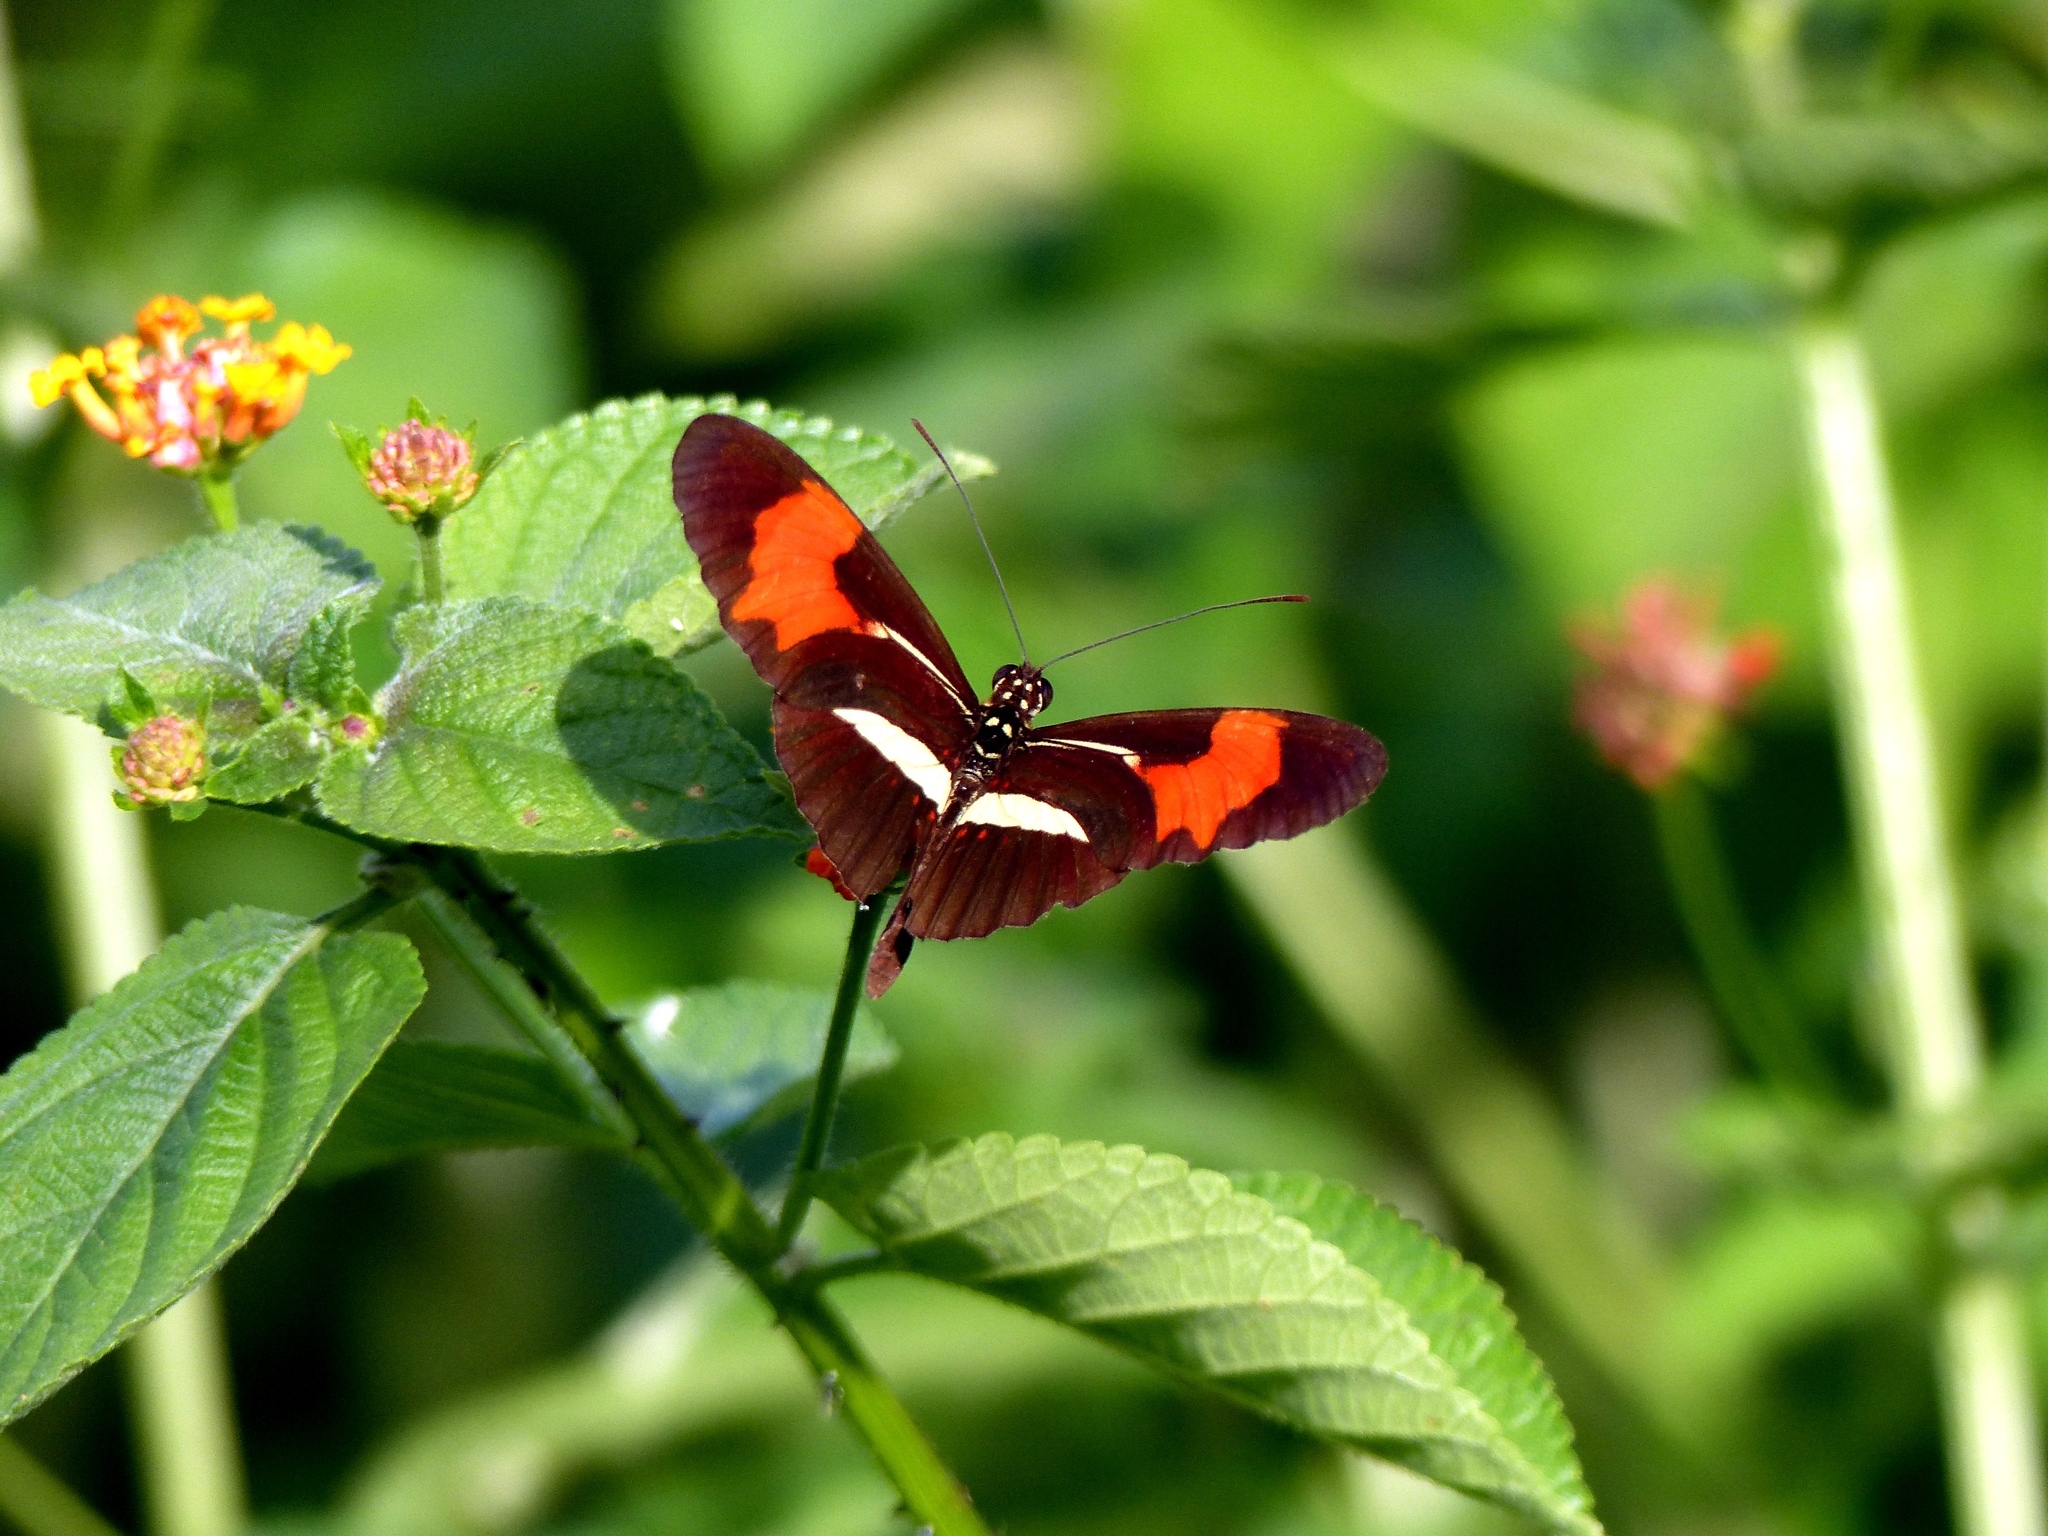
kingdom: Animalia
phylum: Arthropoda
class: Insecta
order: Lepidoptera
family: Nymphalidae
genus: Heliconius
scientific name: Heliconius erato
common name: Common patch longwing
